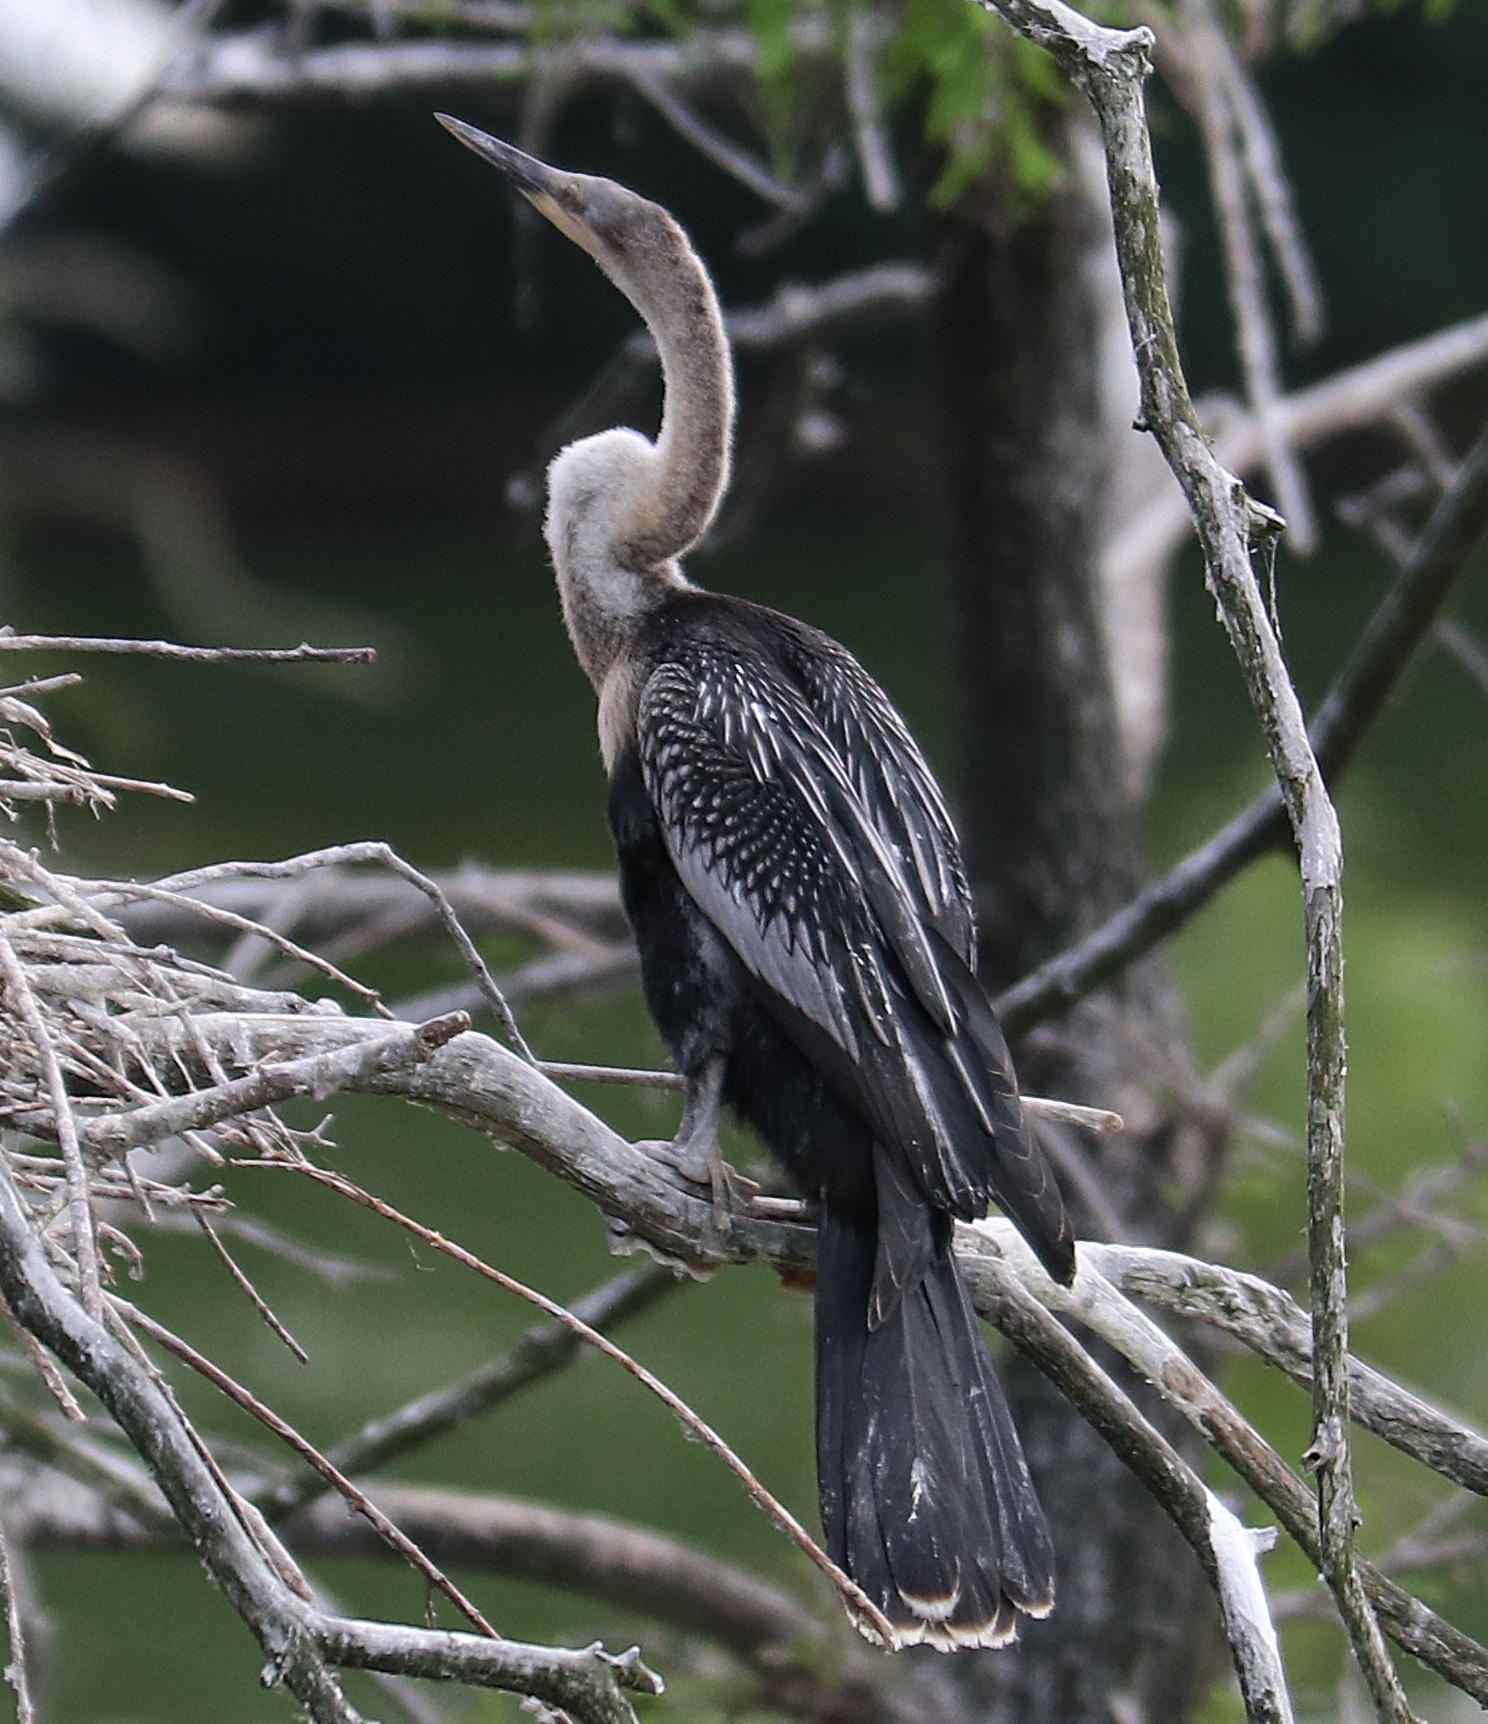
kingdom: Animalia
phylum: Chordata
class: Aves
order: Suliformes
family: Anhingidae
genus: Anhinga
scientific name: Anhinga anhinga
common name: Anhinga
